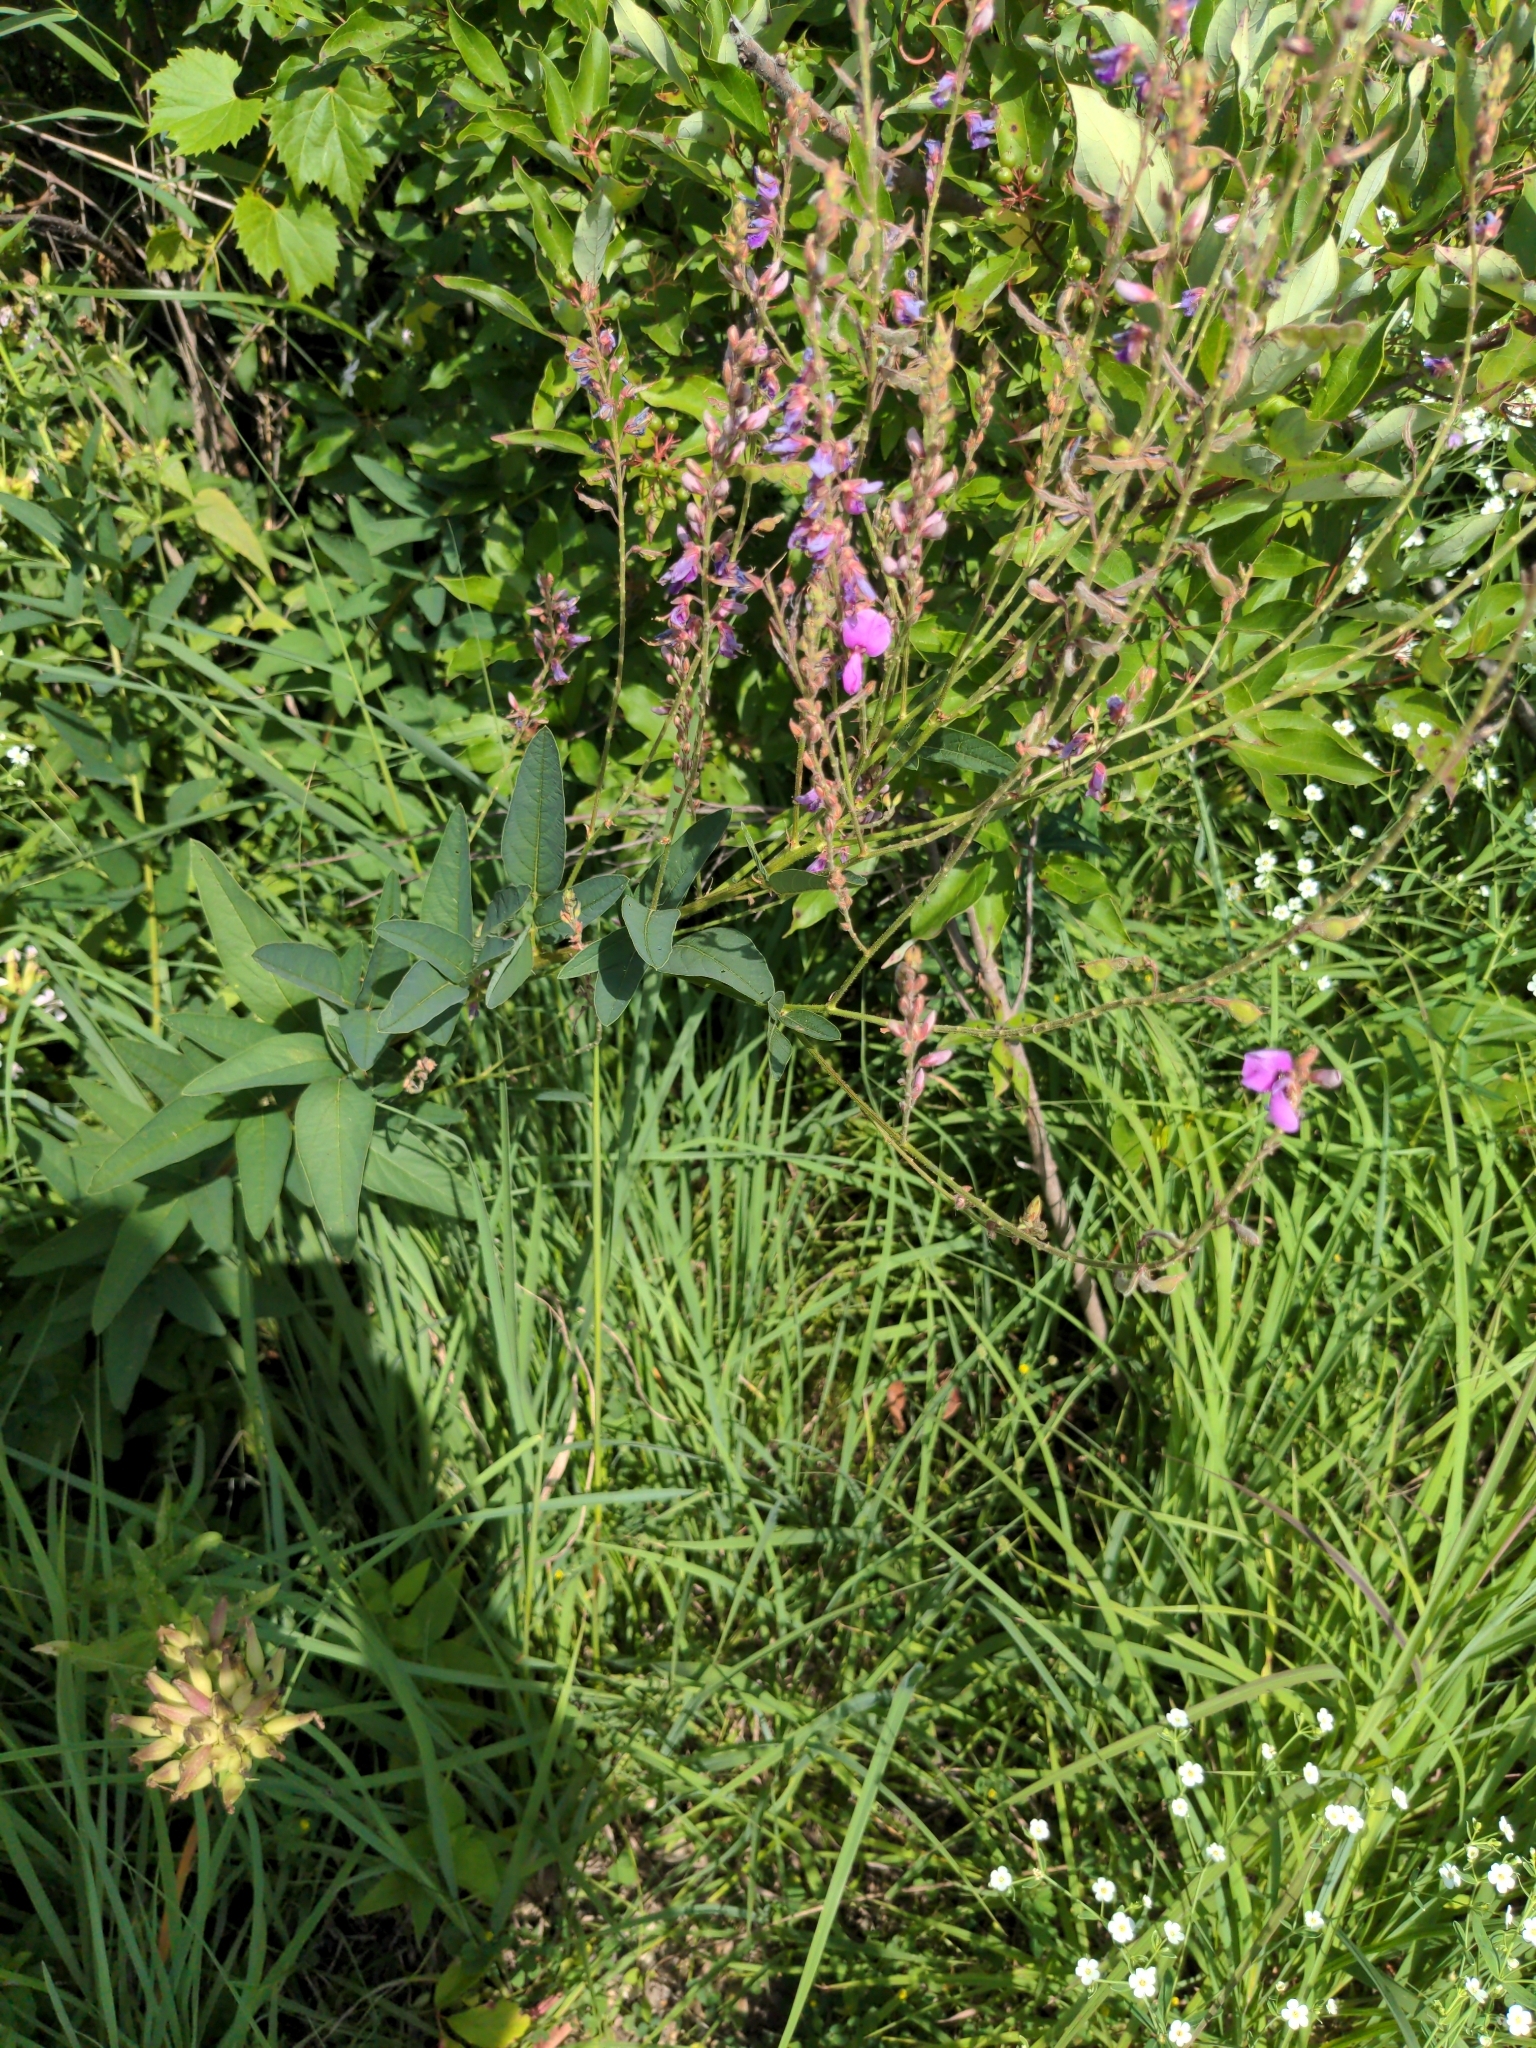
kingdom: Plantae
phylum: Tracheophyta
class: Magnoliopsida
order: Fabales
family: Fabaceae
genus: Desmodium
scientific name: Desmodium canadense
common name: Canada tick-trefoil
